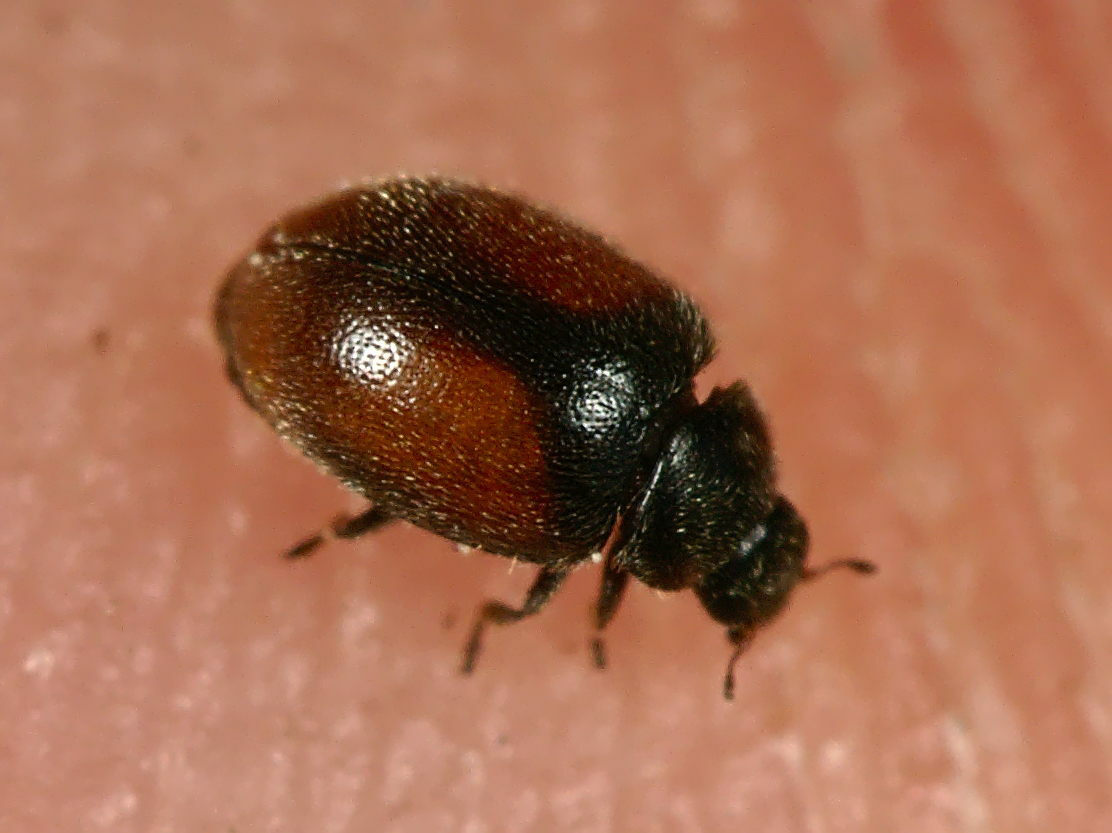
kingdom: Animalia
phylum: Arthropoda
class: Insecta
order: Coleoptera
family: Coccinellidae
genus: Scymnus
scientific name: Scymnus suturalis
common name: Ladybird beetle
